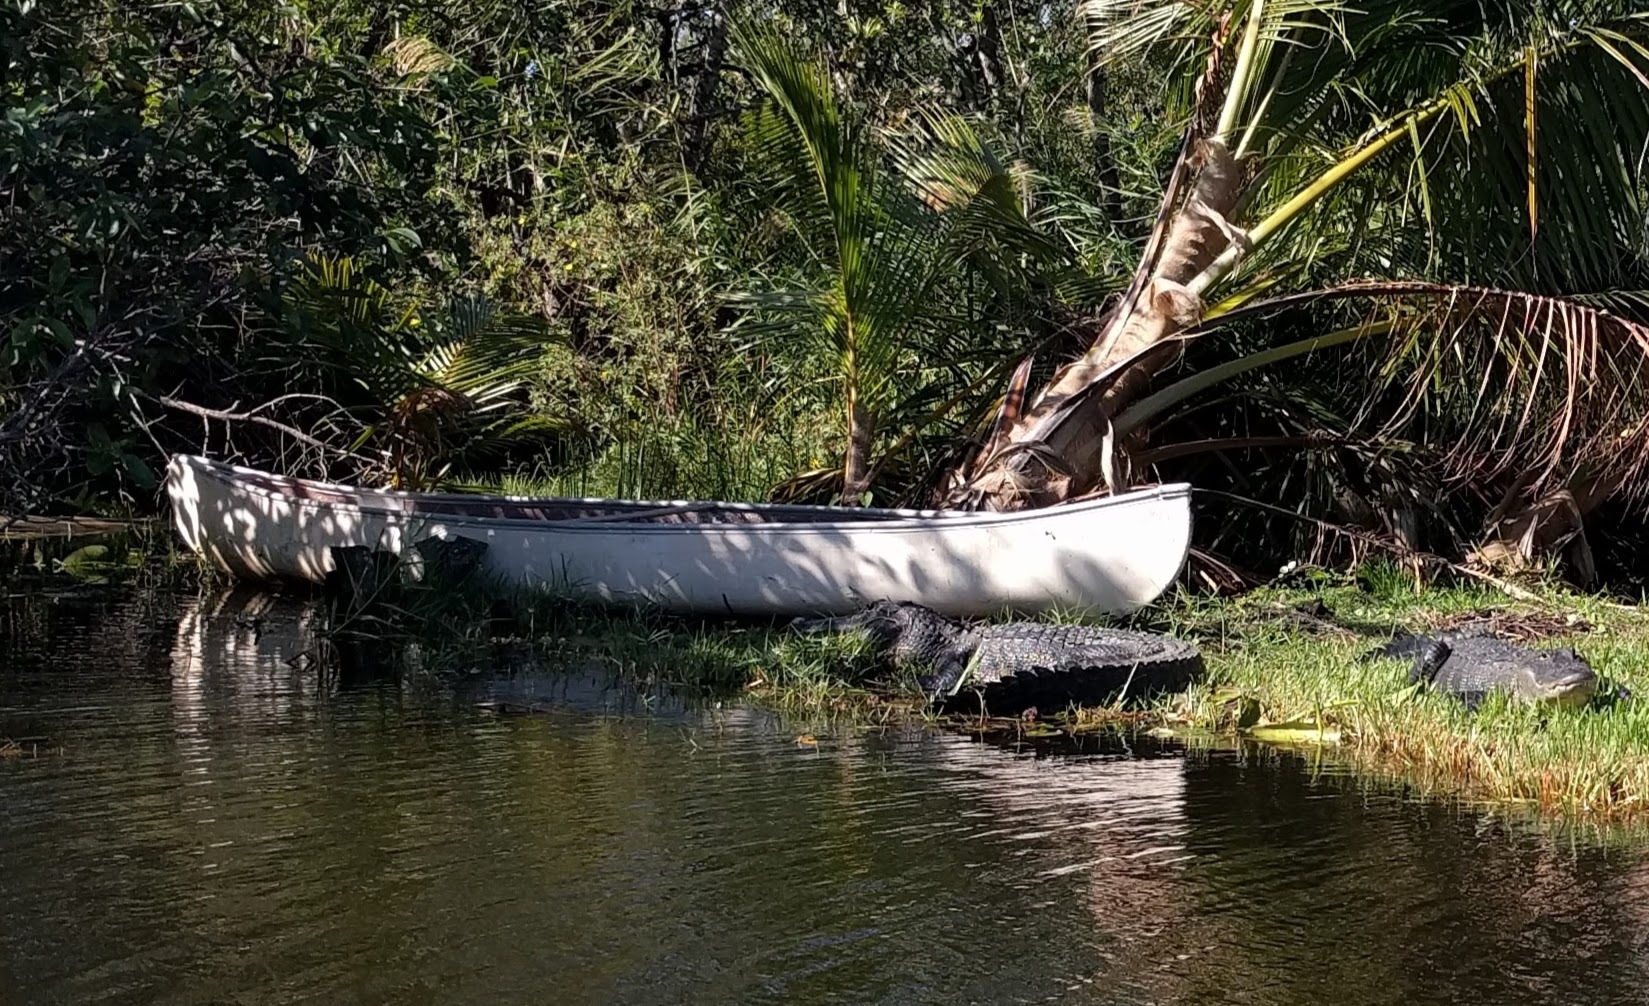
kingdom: Animalia
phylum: Chordata
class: Crocodylia
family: Alligatoridae
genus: Alligator
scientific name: Alligator mississippiensis
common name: American alligator
